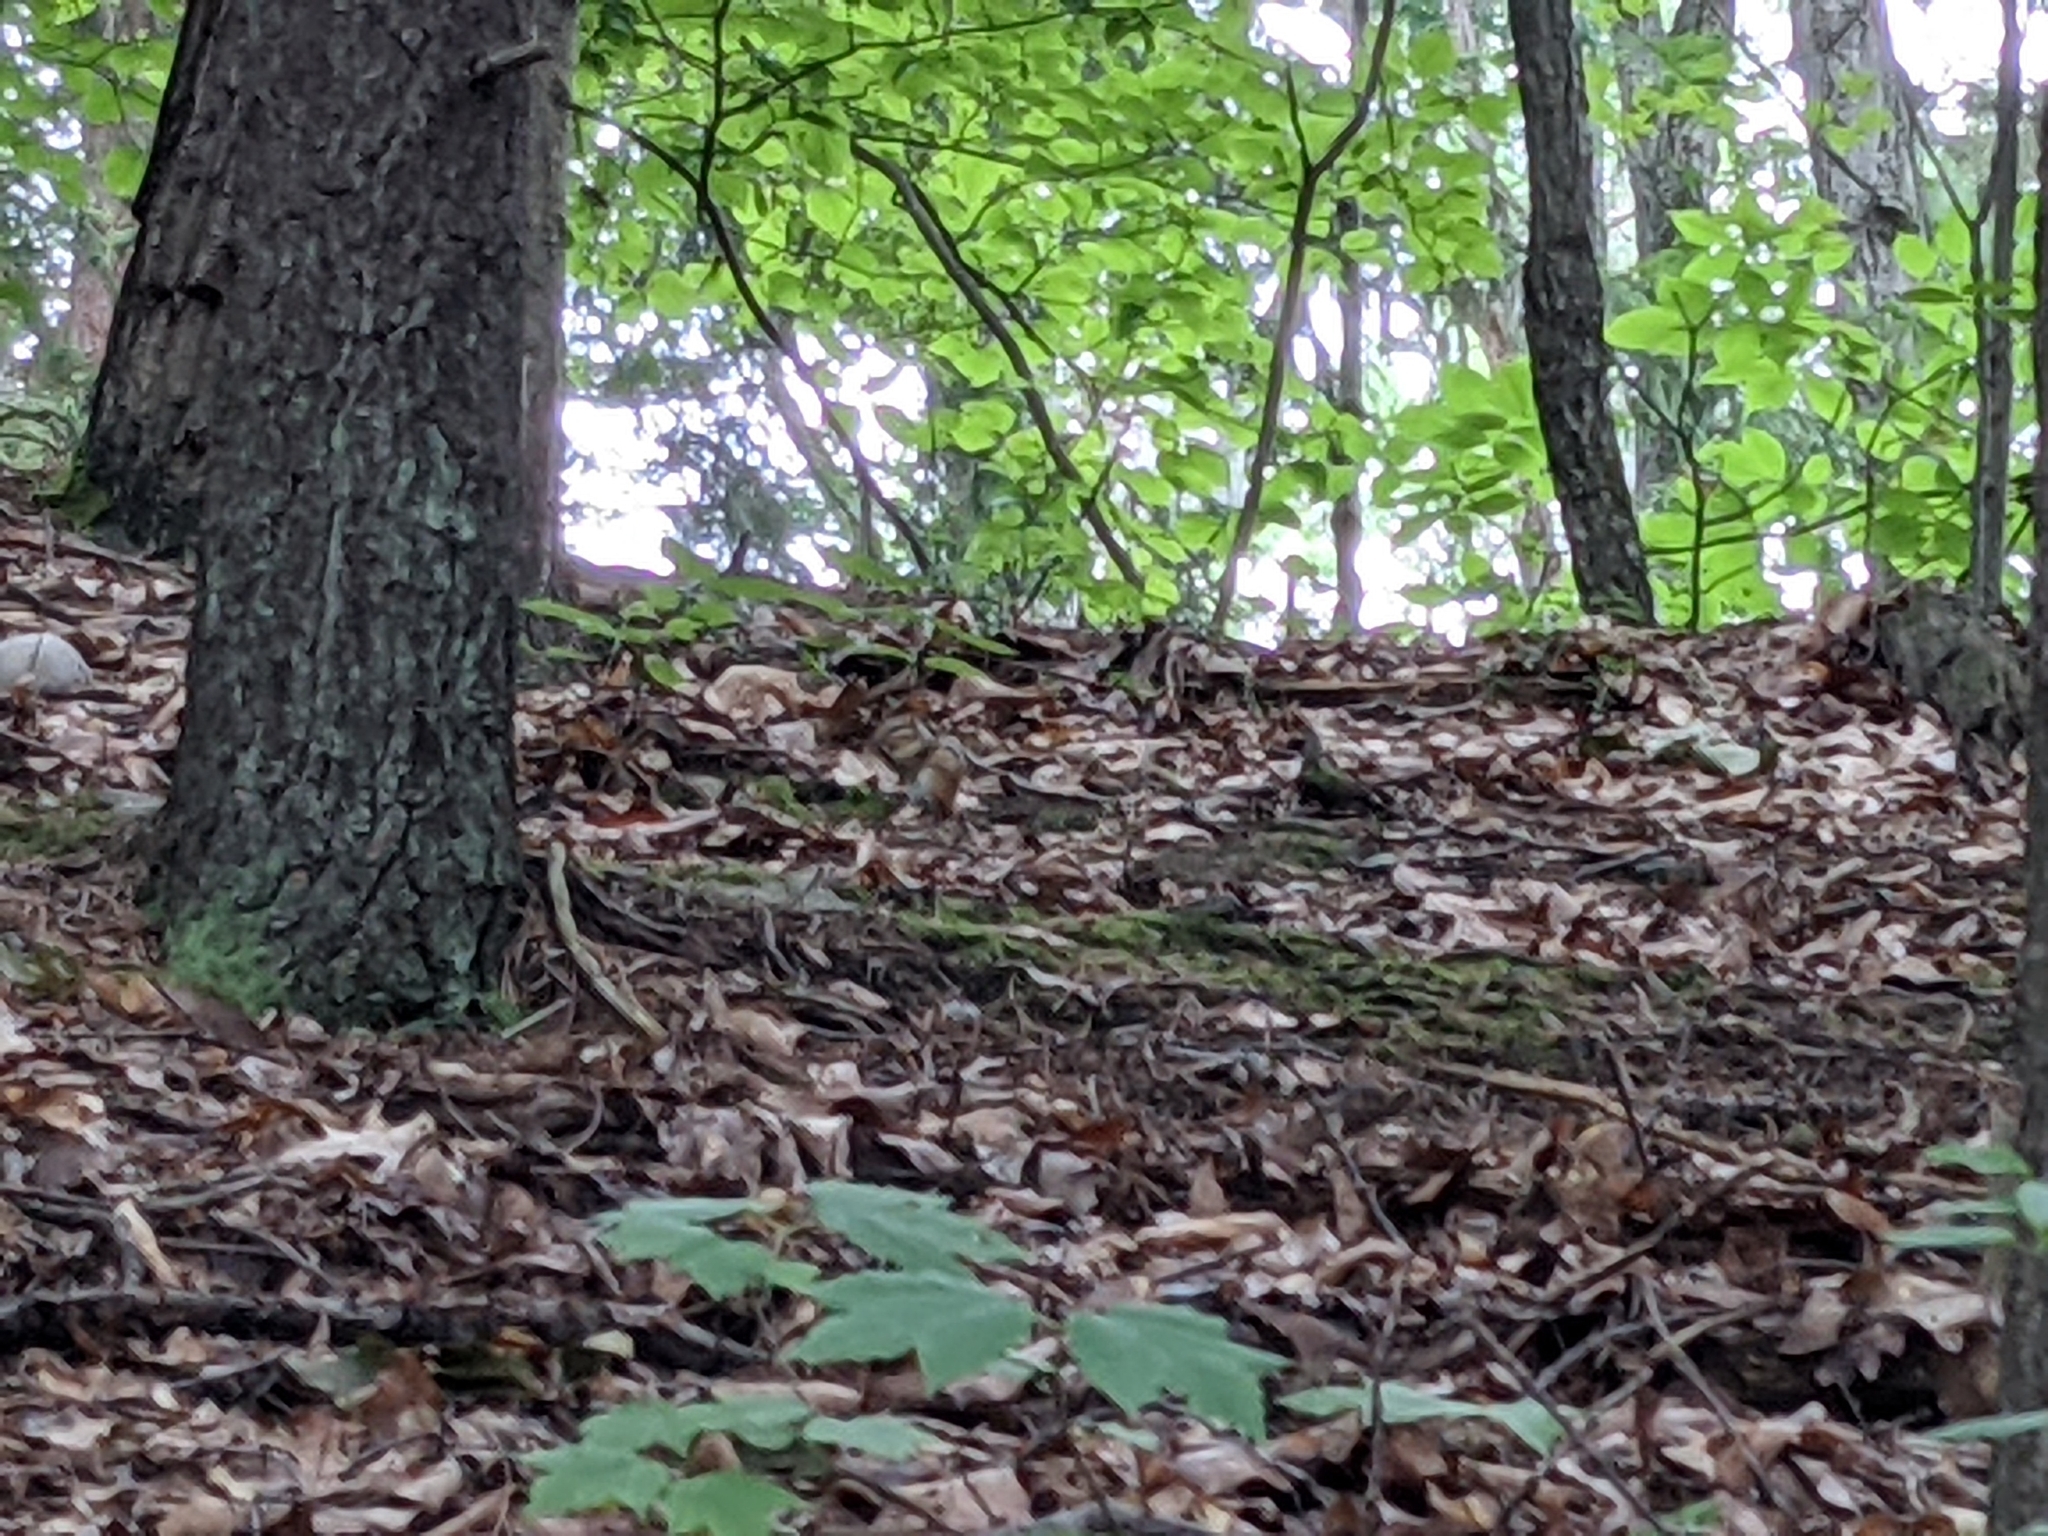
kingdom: Animalia
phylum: Chordata
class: Mammalia
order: Rodentia
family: Sciuridae
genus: Tamias
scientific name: Tamias striatus
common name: Eastern chipmunk
